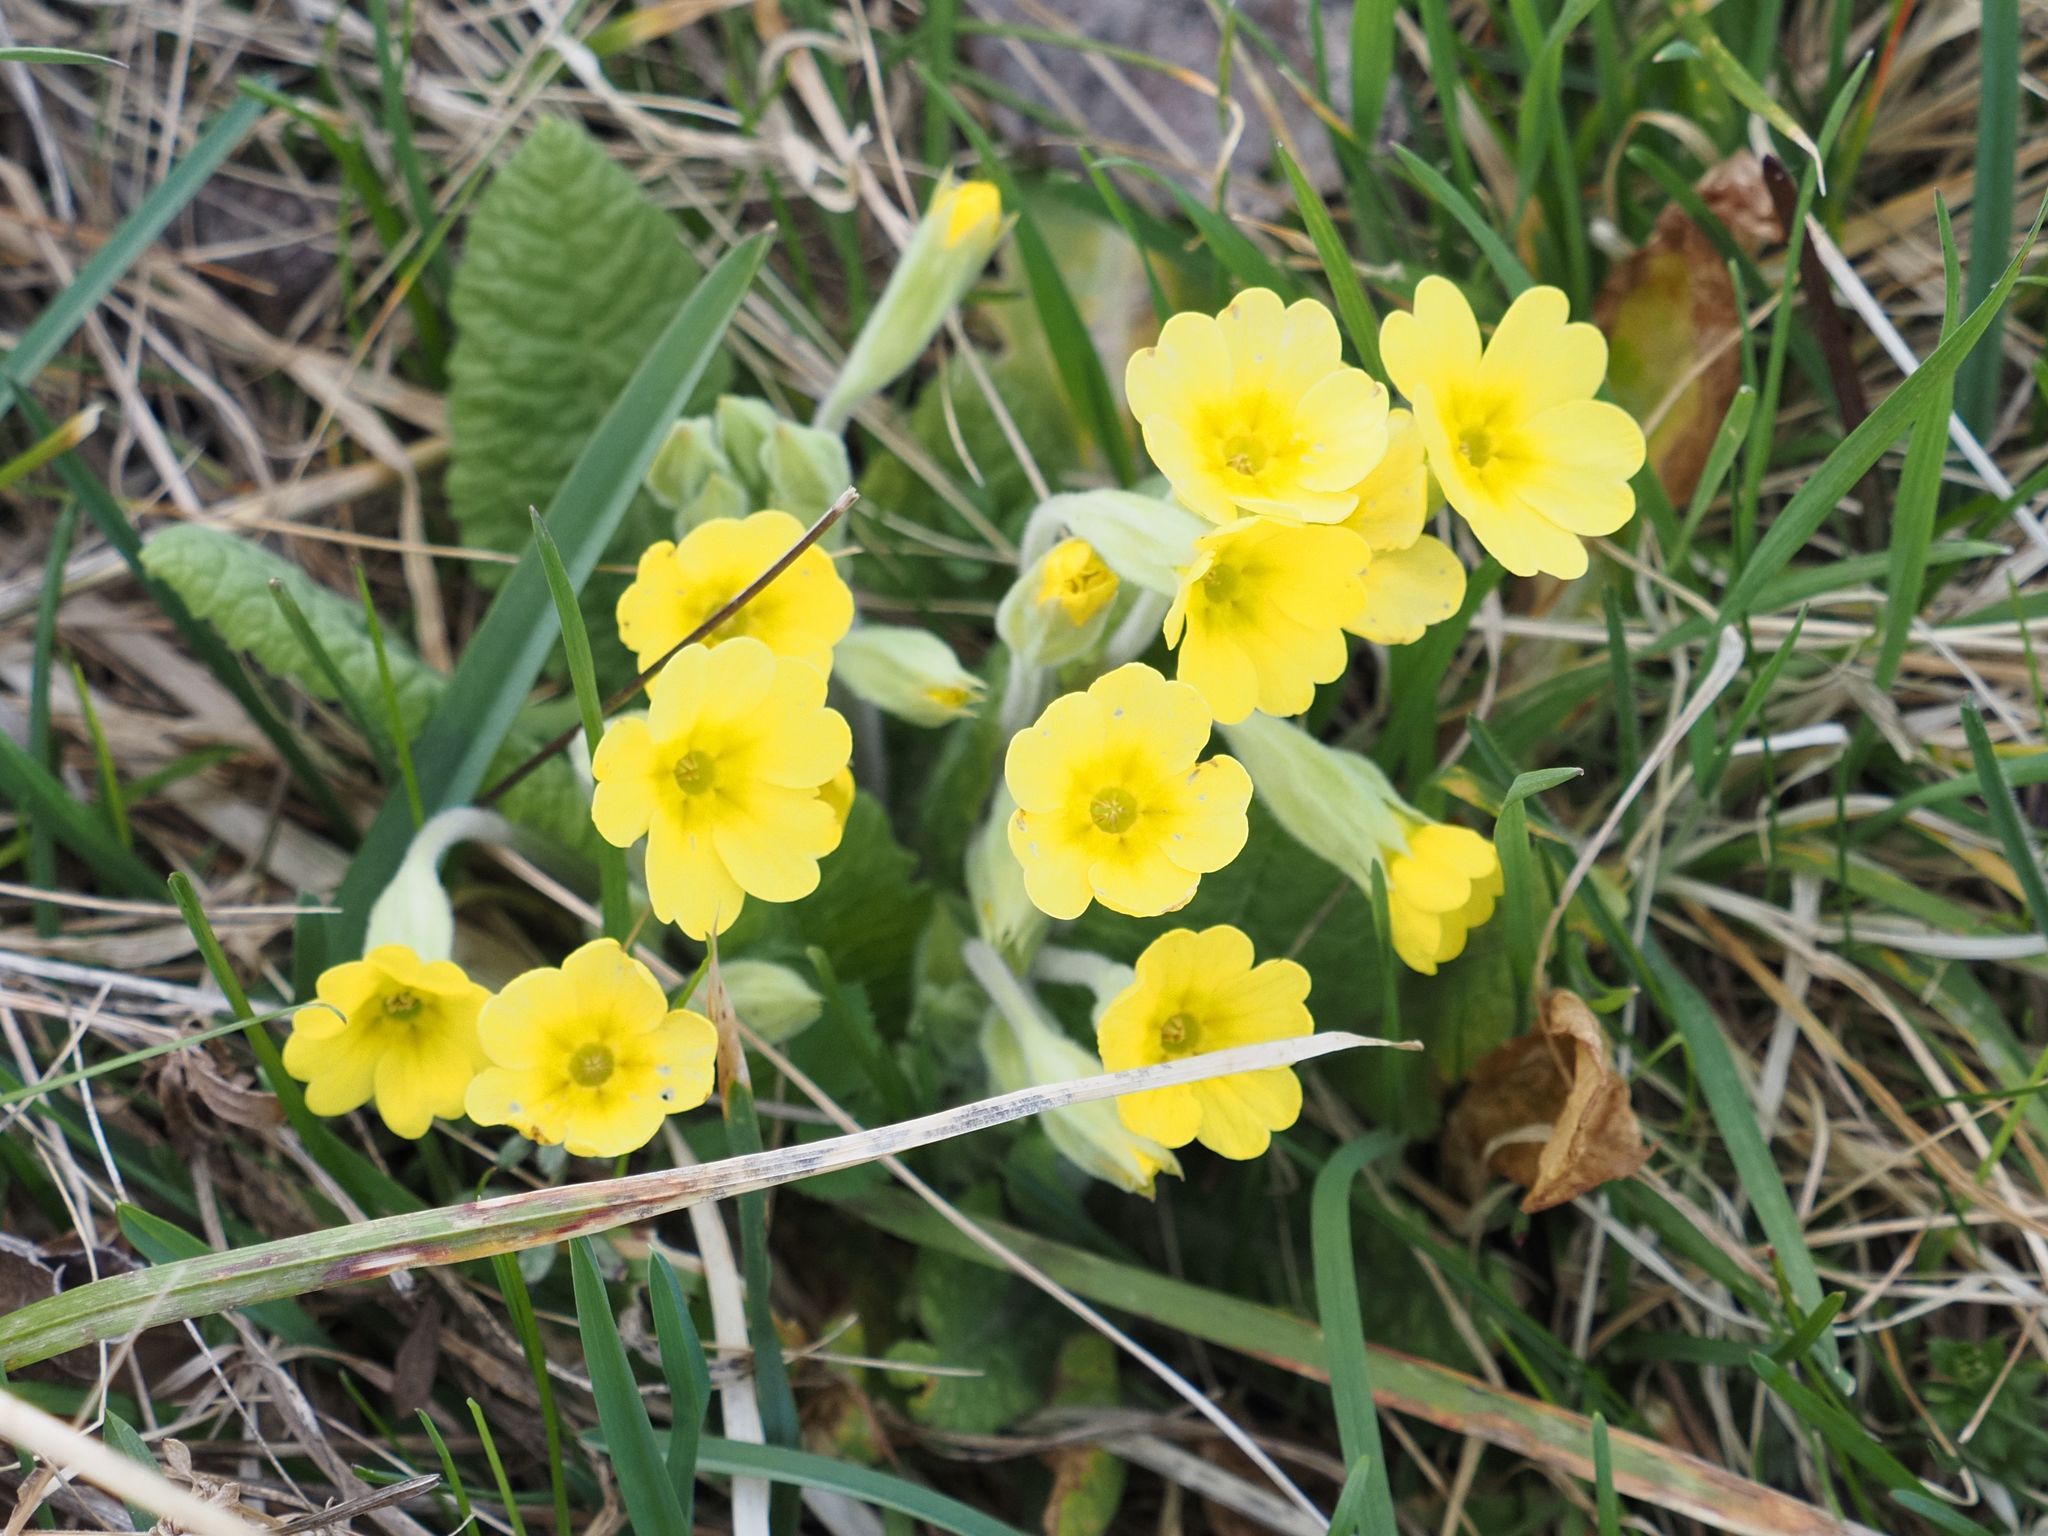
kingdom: Plantae
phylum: Tracheophyta
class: Magnoliopsida
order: Ericales
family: Primulaceae
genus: Primula
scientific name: Primula polyantha
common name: False oxlip
